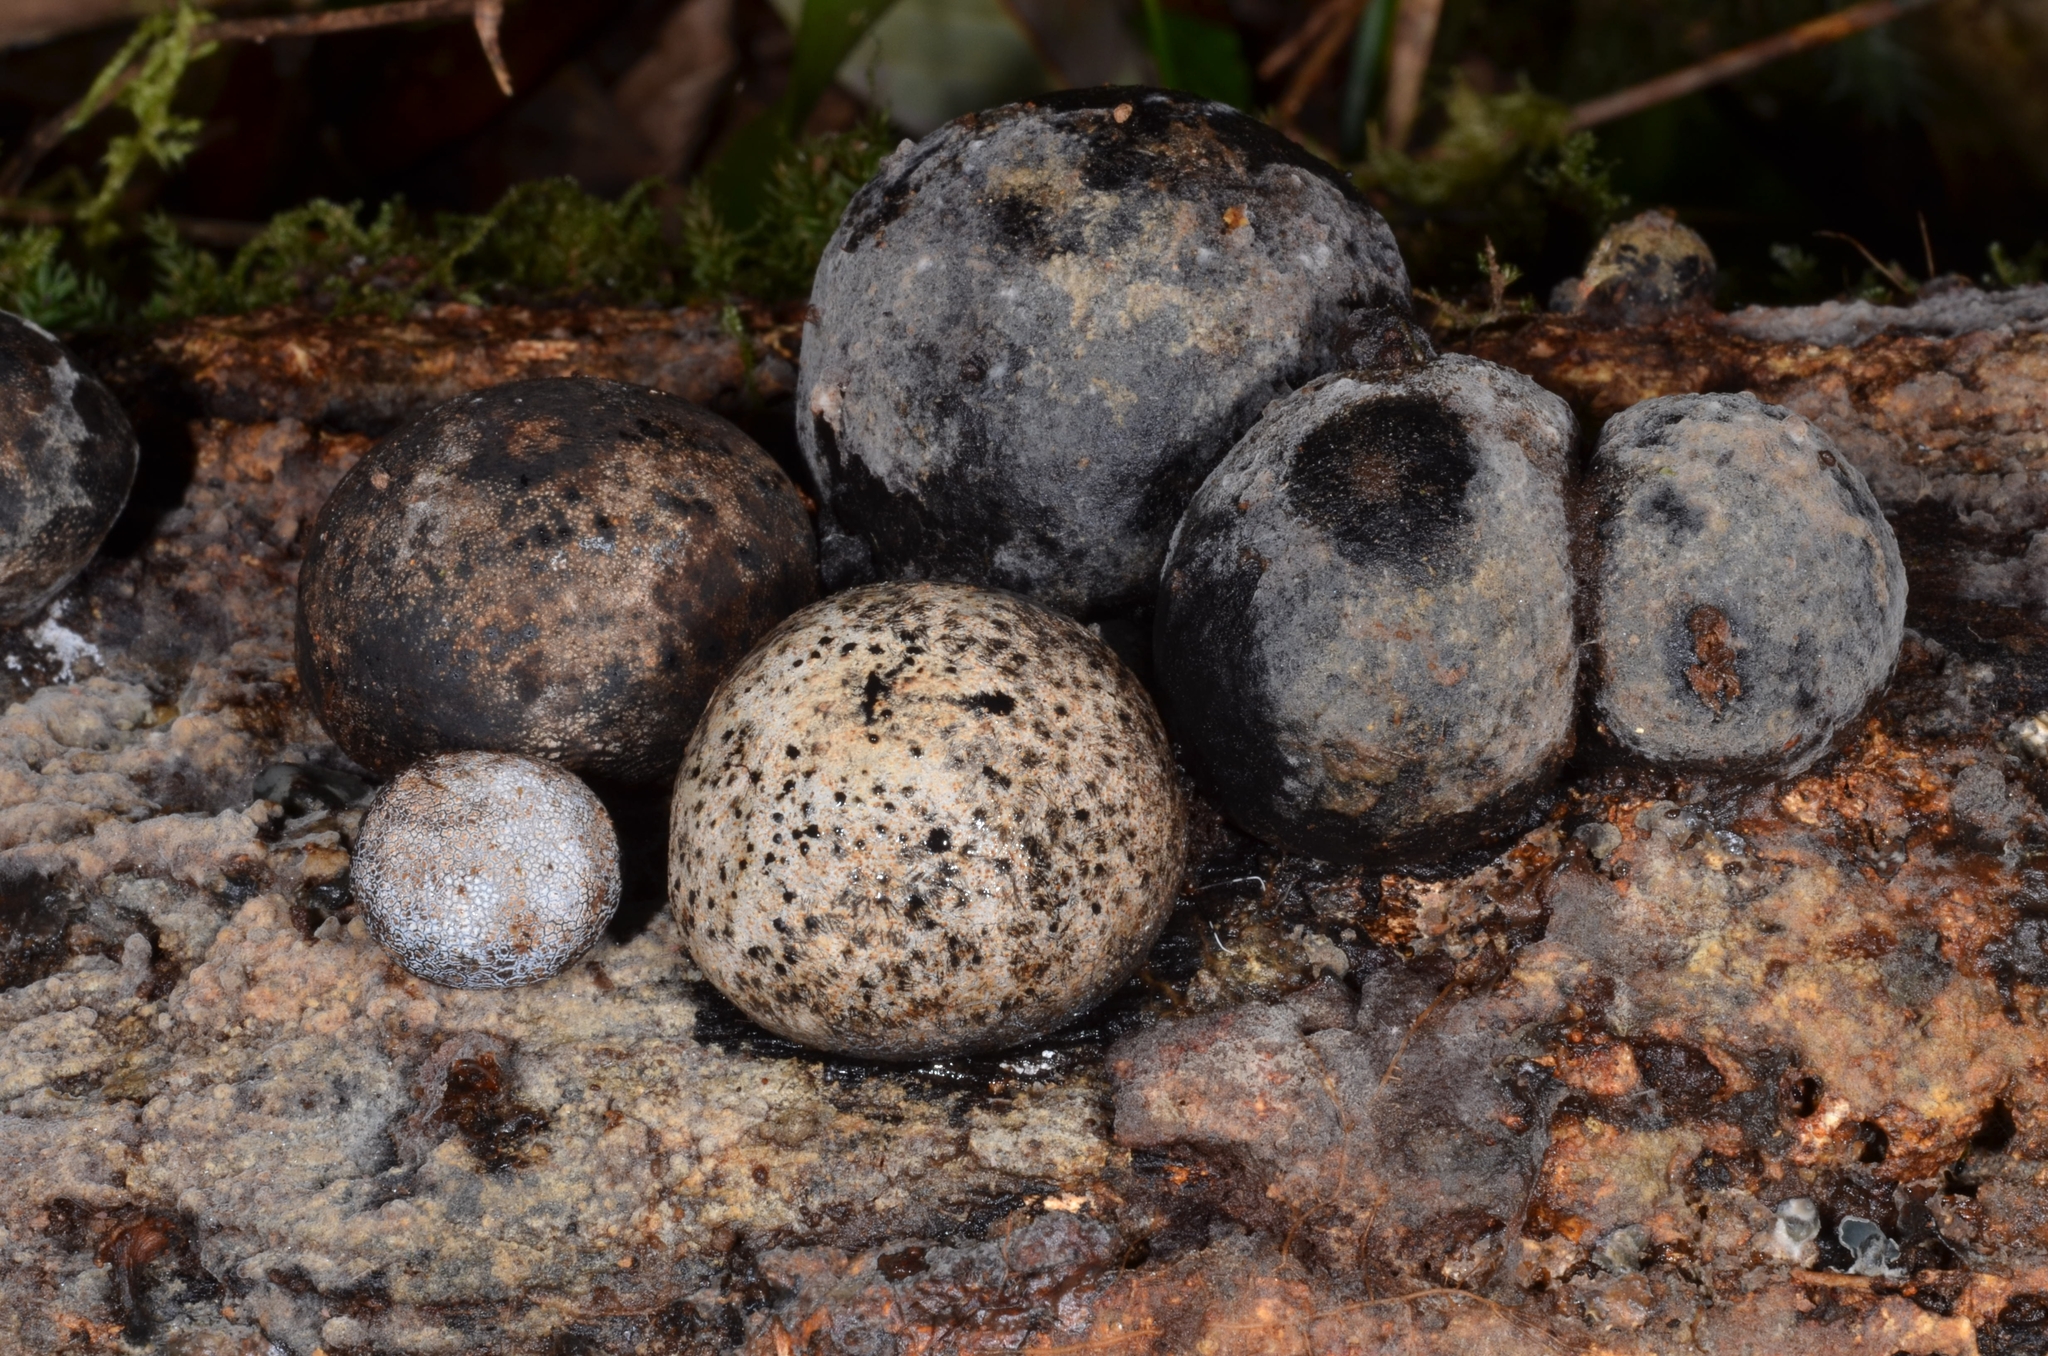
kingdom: Fungi
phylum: Ascomycota
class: Sordariomycetes
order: Xylariales
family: Xylariaceae
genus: Xylaria
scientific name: Xylaria cranioides
